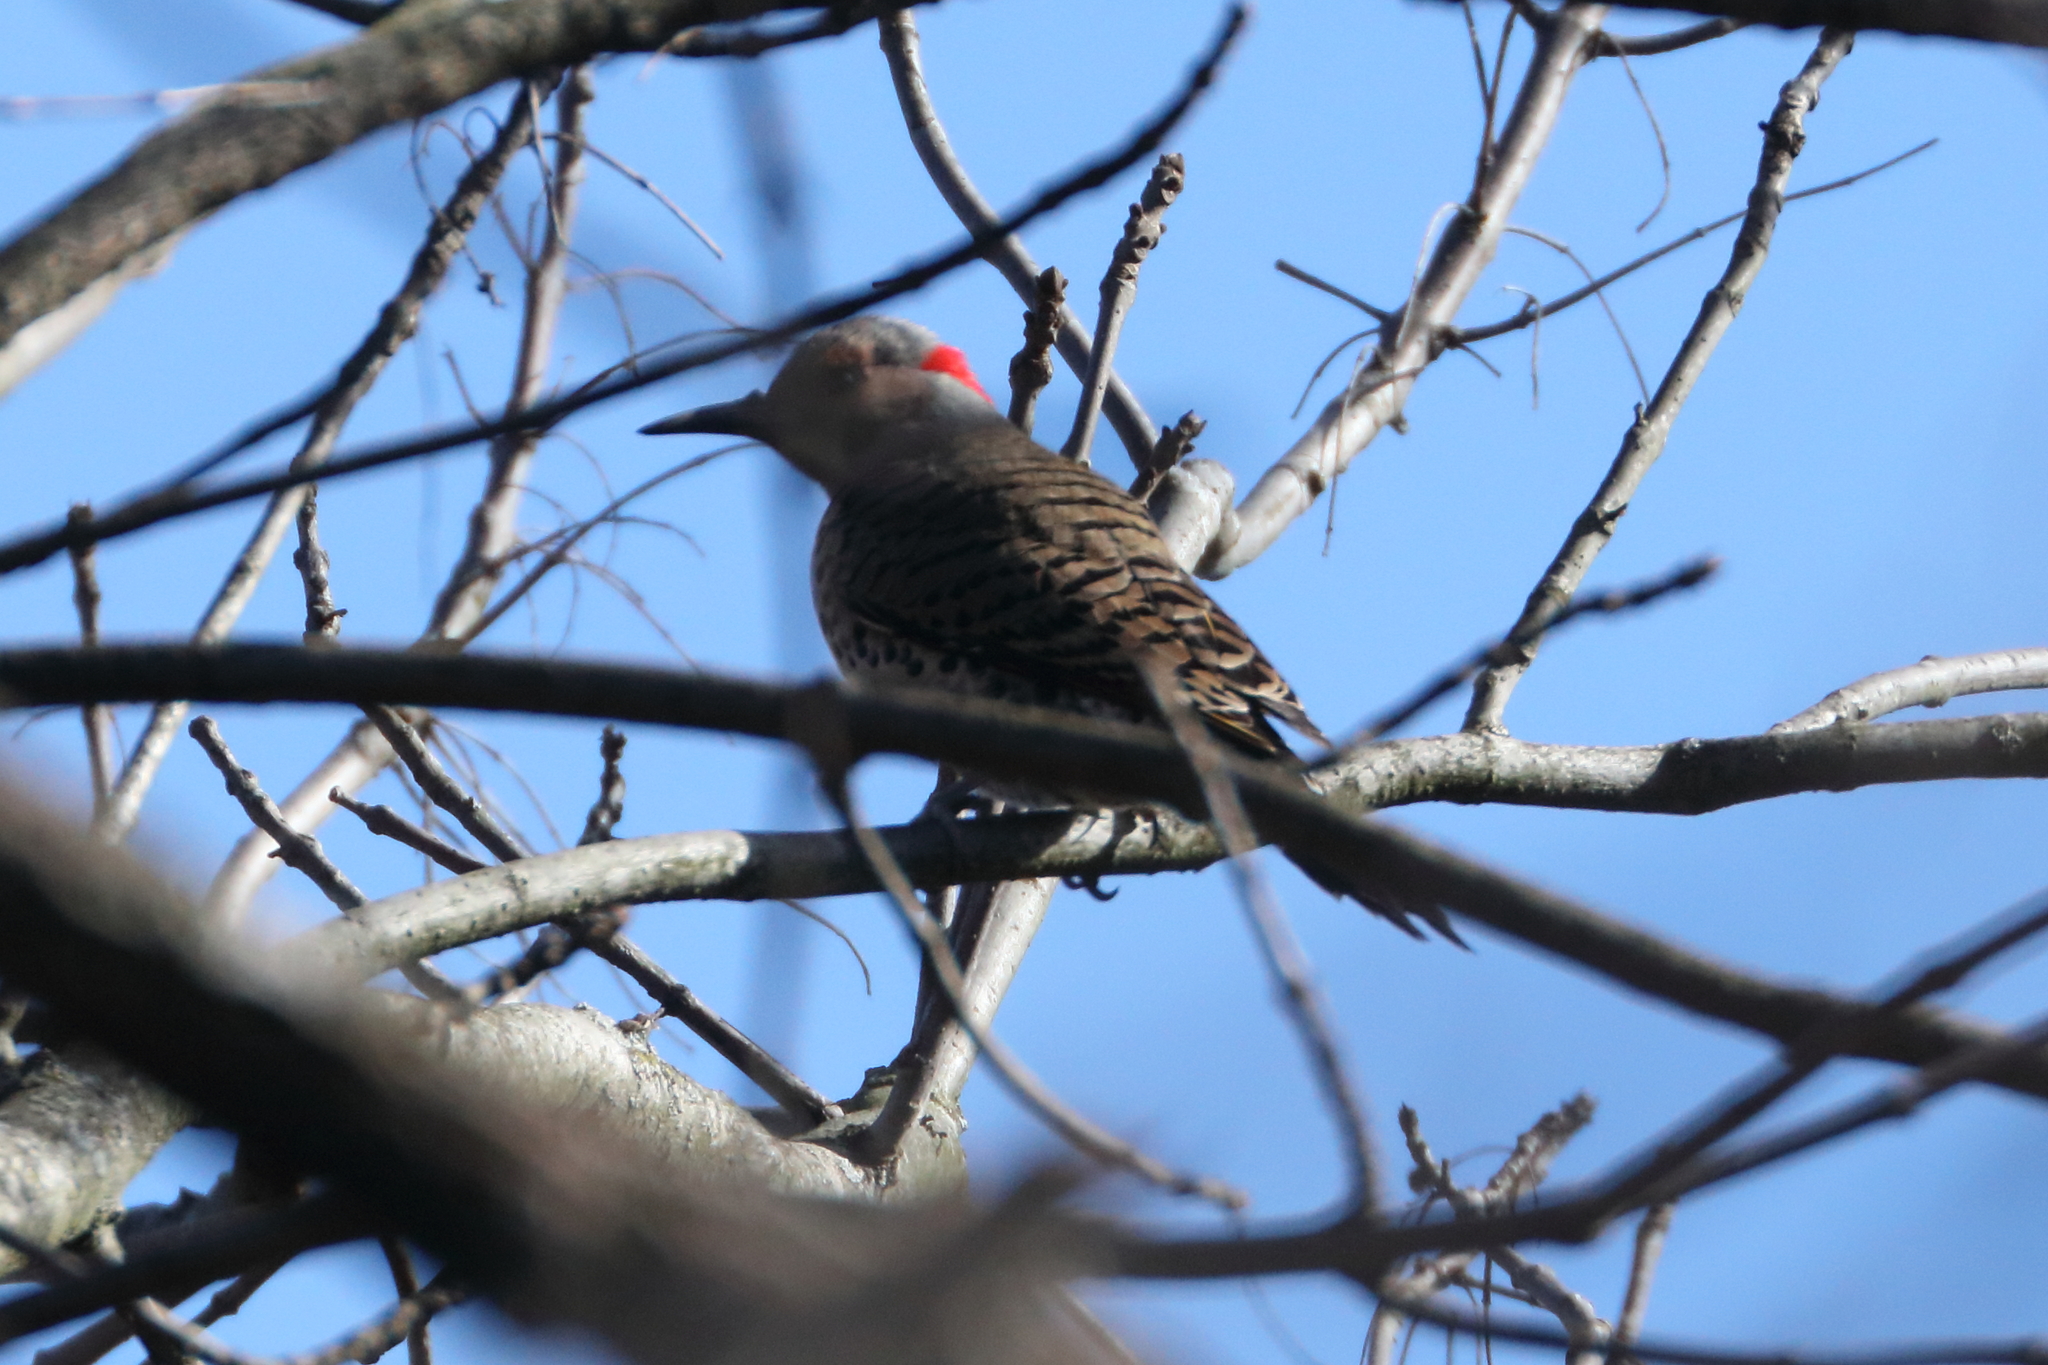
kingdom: Animalia
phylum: Chordata
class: Aves
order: Piciformes
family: Picidae
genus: Colaptes
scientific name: Colaptes auratus
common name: Northern flicker
